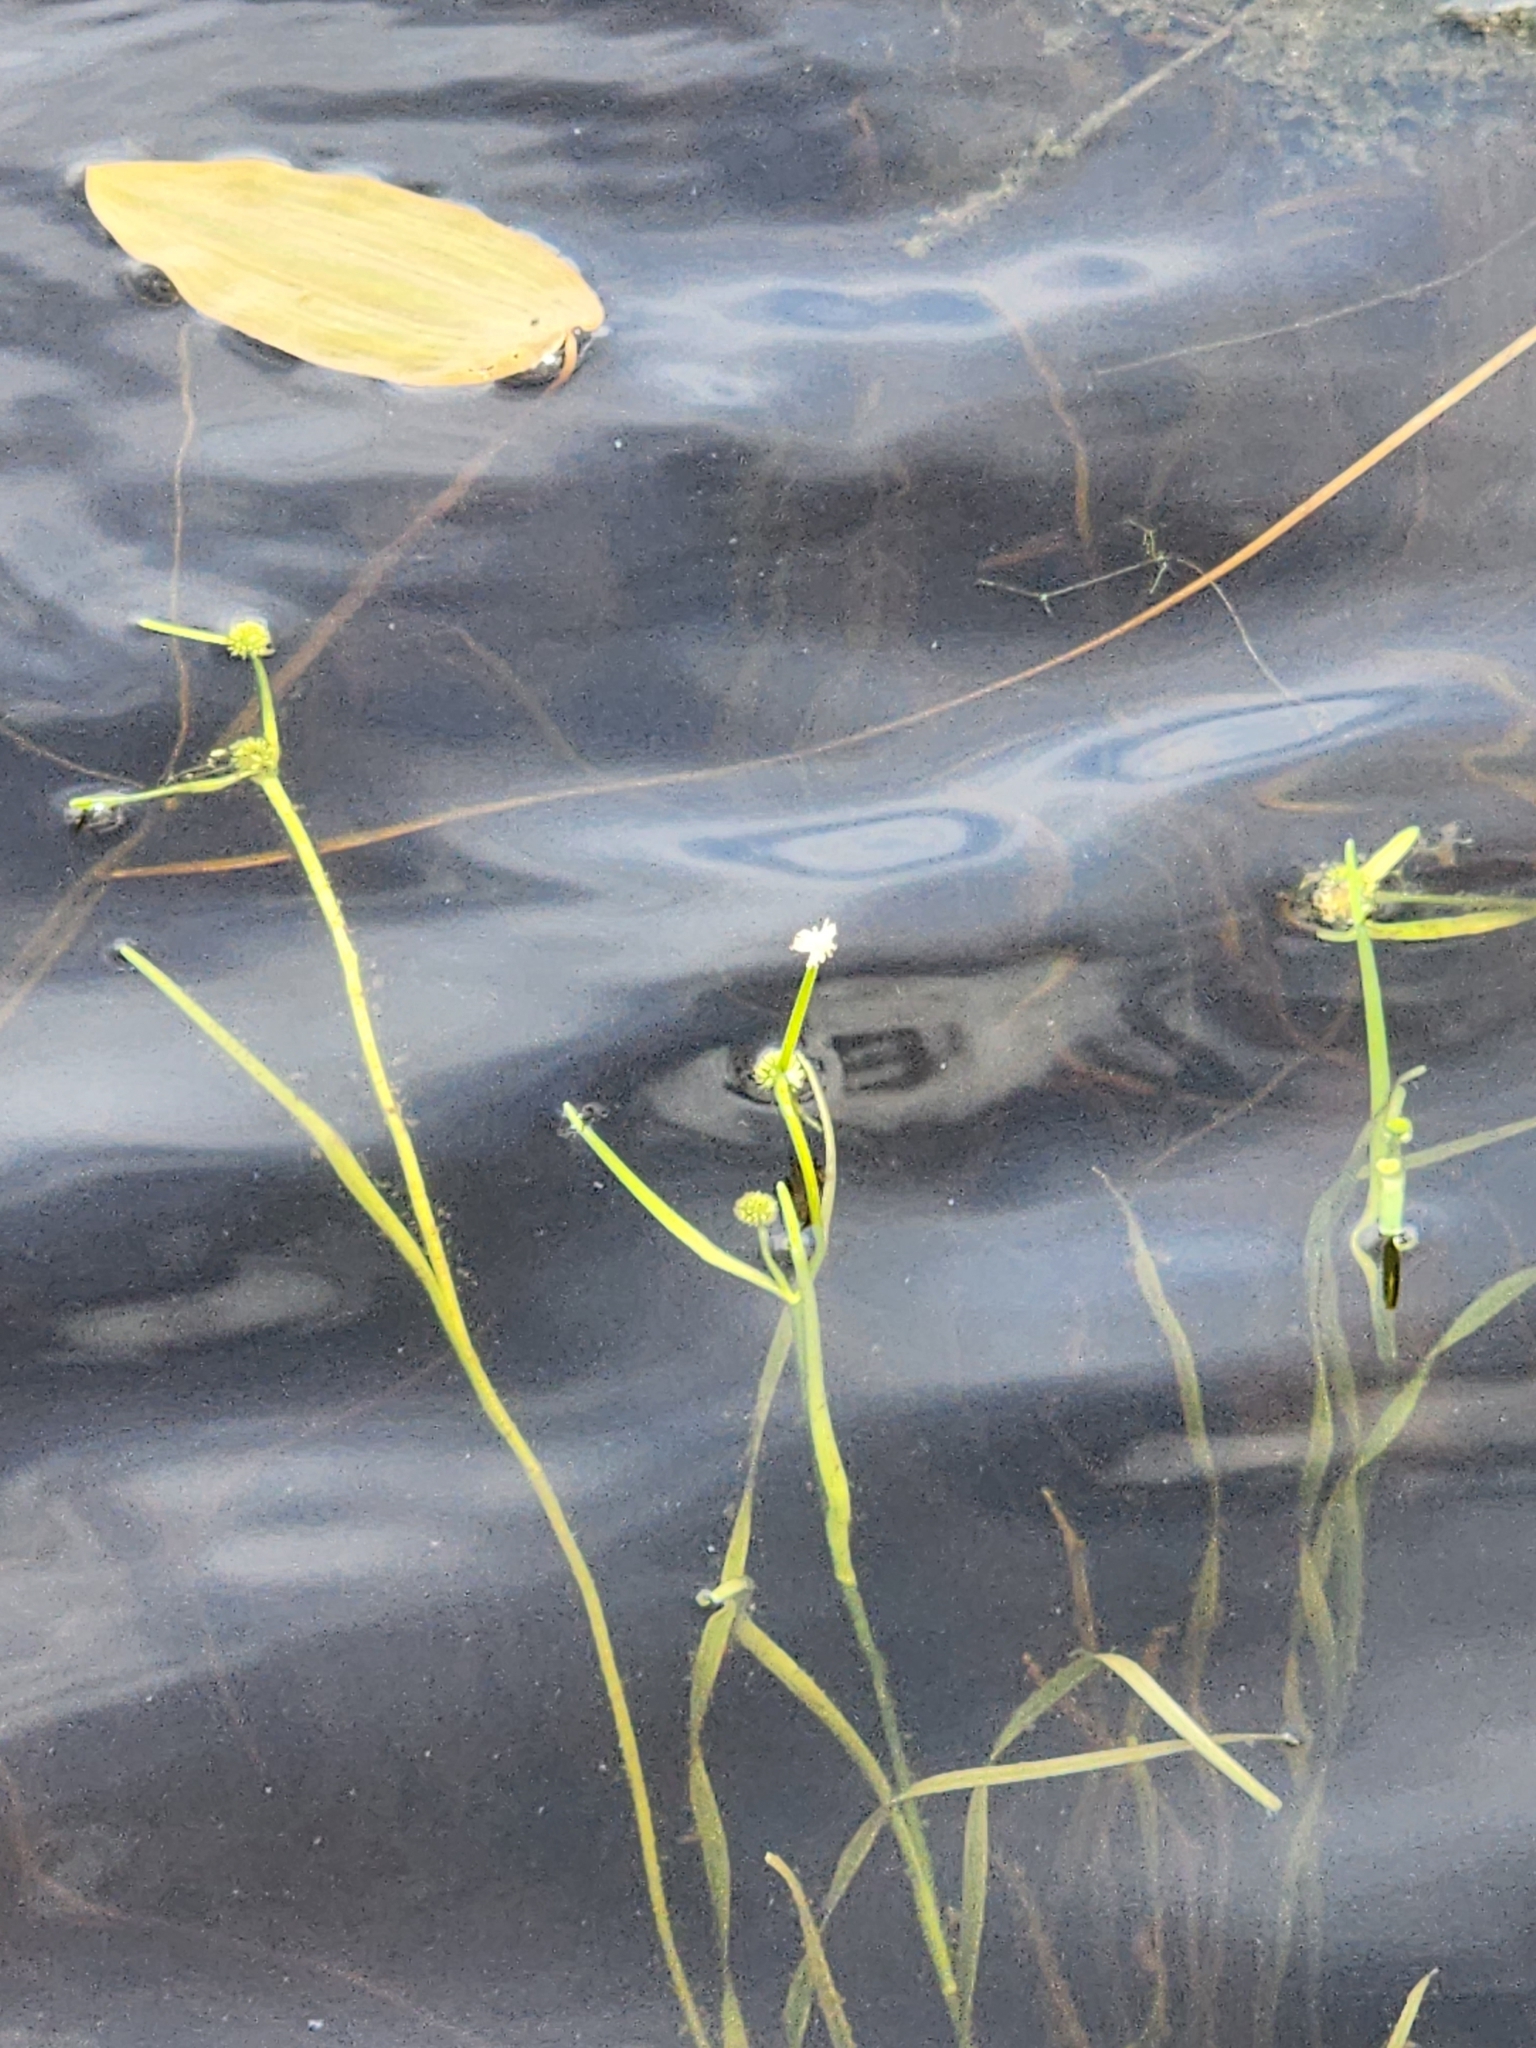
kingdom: Plantae
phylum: Tracheophyta
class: Liliopsida
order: Poales
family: Typhaceae
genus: Sparganium
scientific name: Sparganium natans
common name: Least bur-reed
